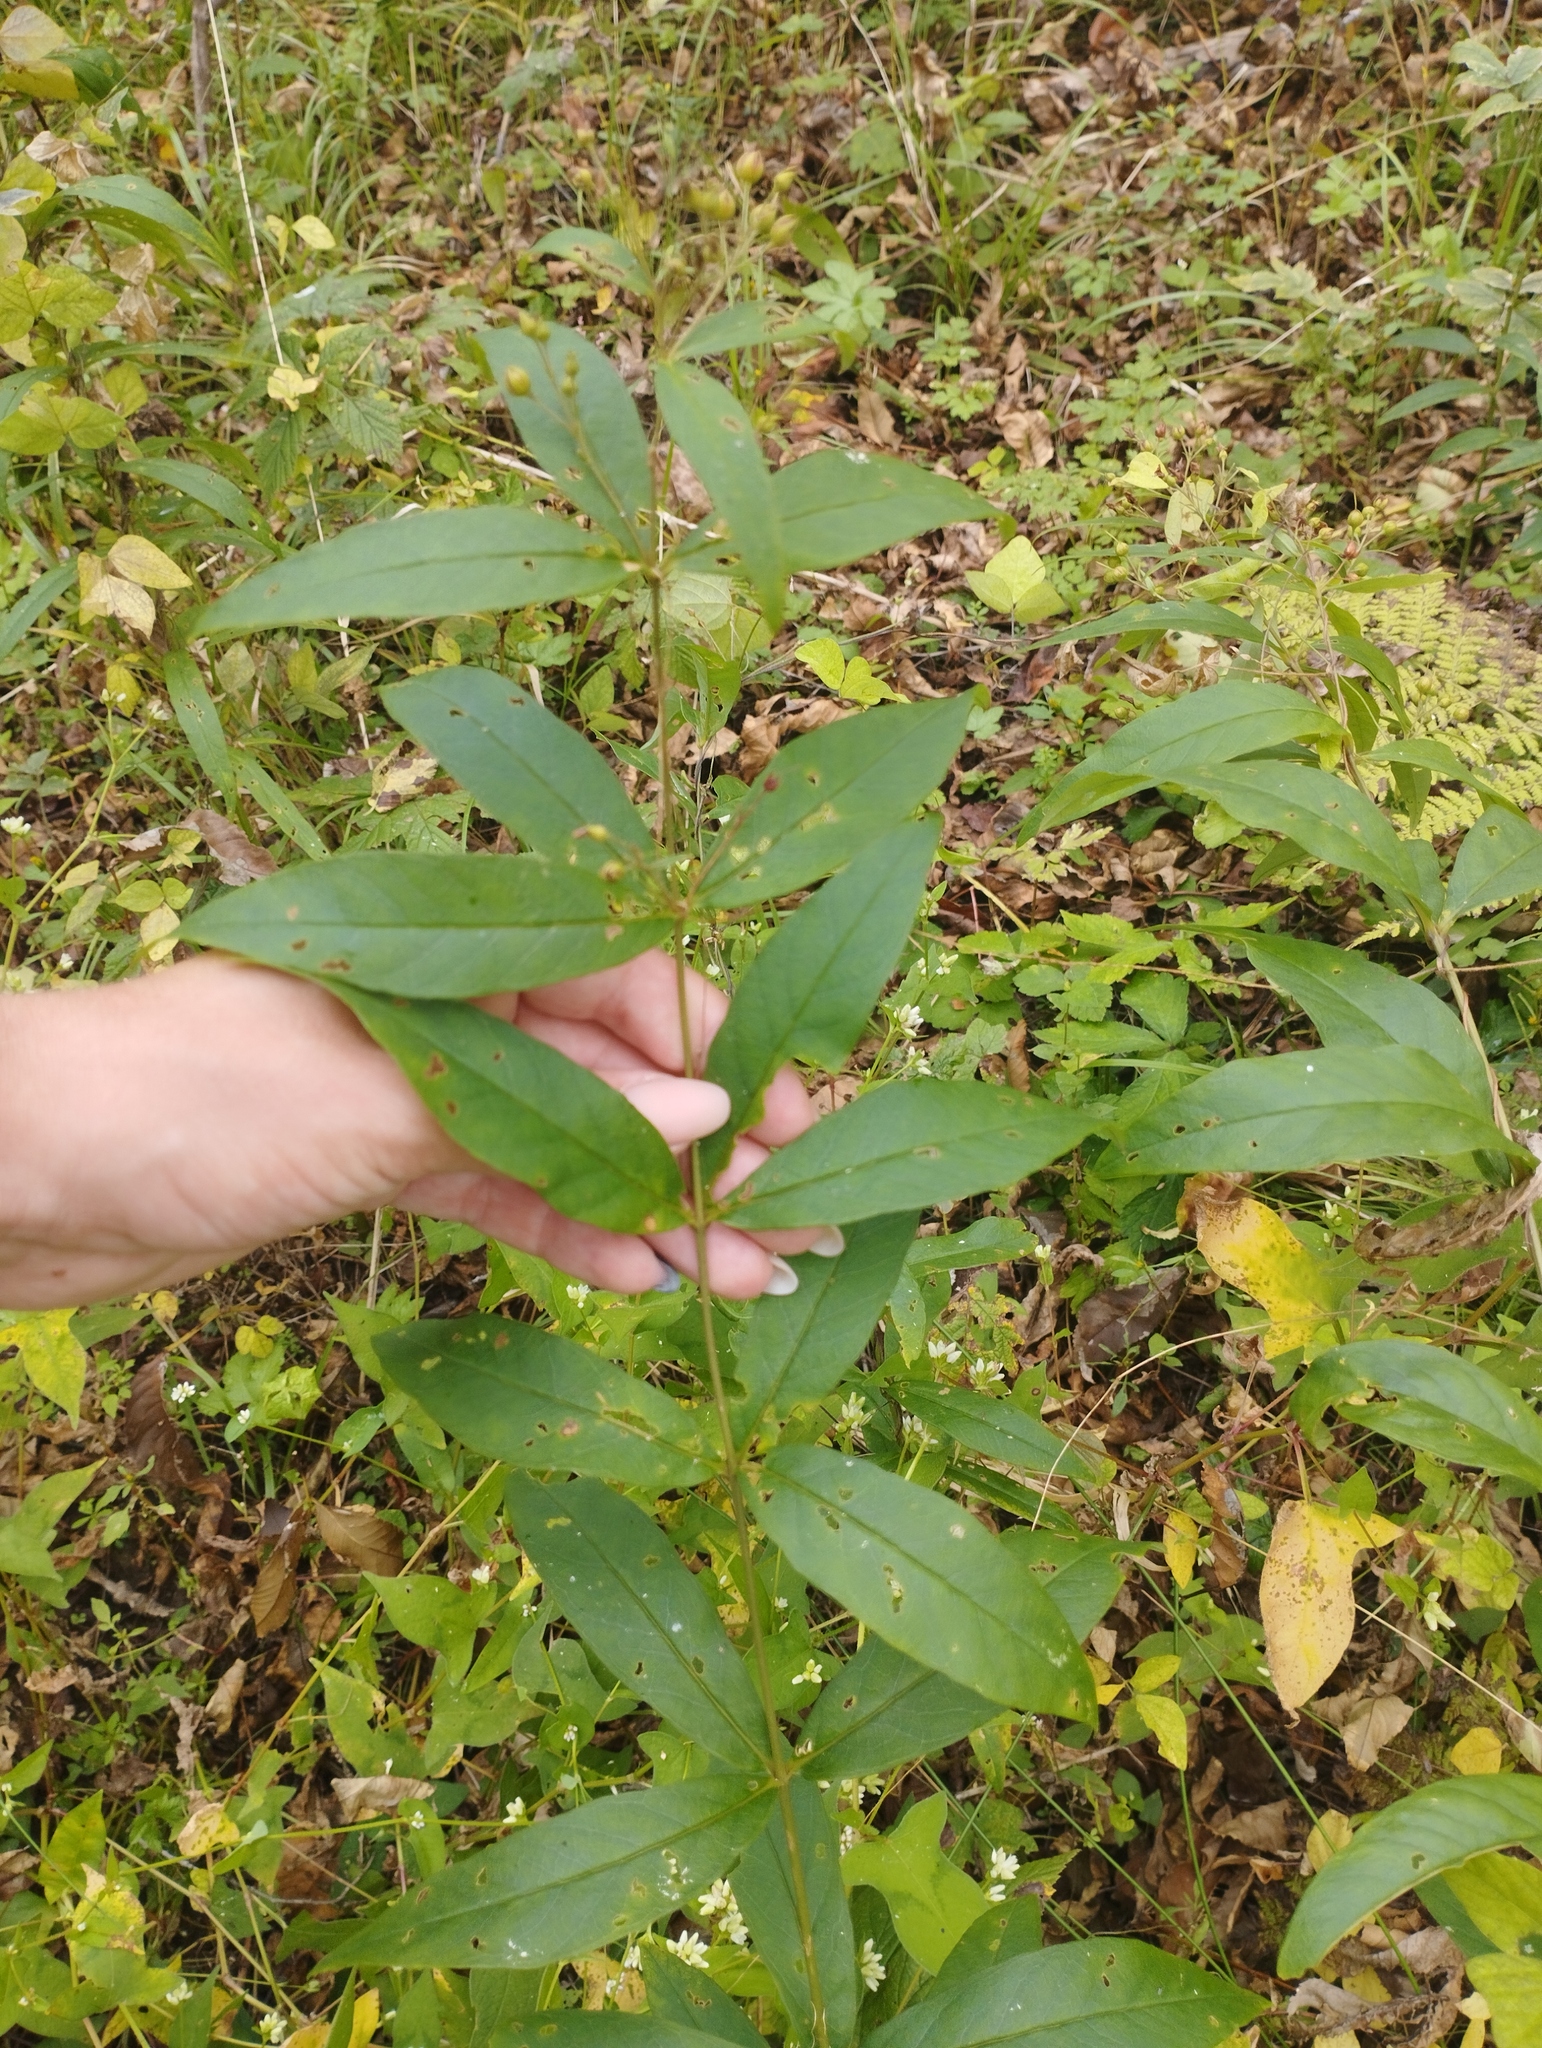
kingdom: Plantae
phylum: Tracheophyta
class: Magnoliopsida
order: Ericales
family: Primulaceae
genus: Lysimachia
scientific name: Lysimachia davurica
